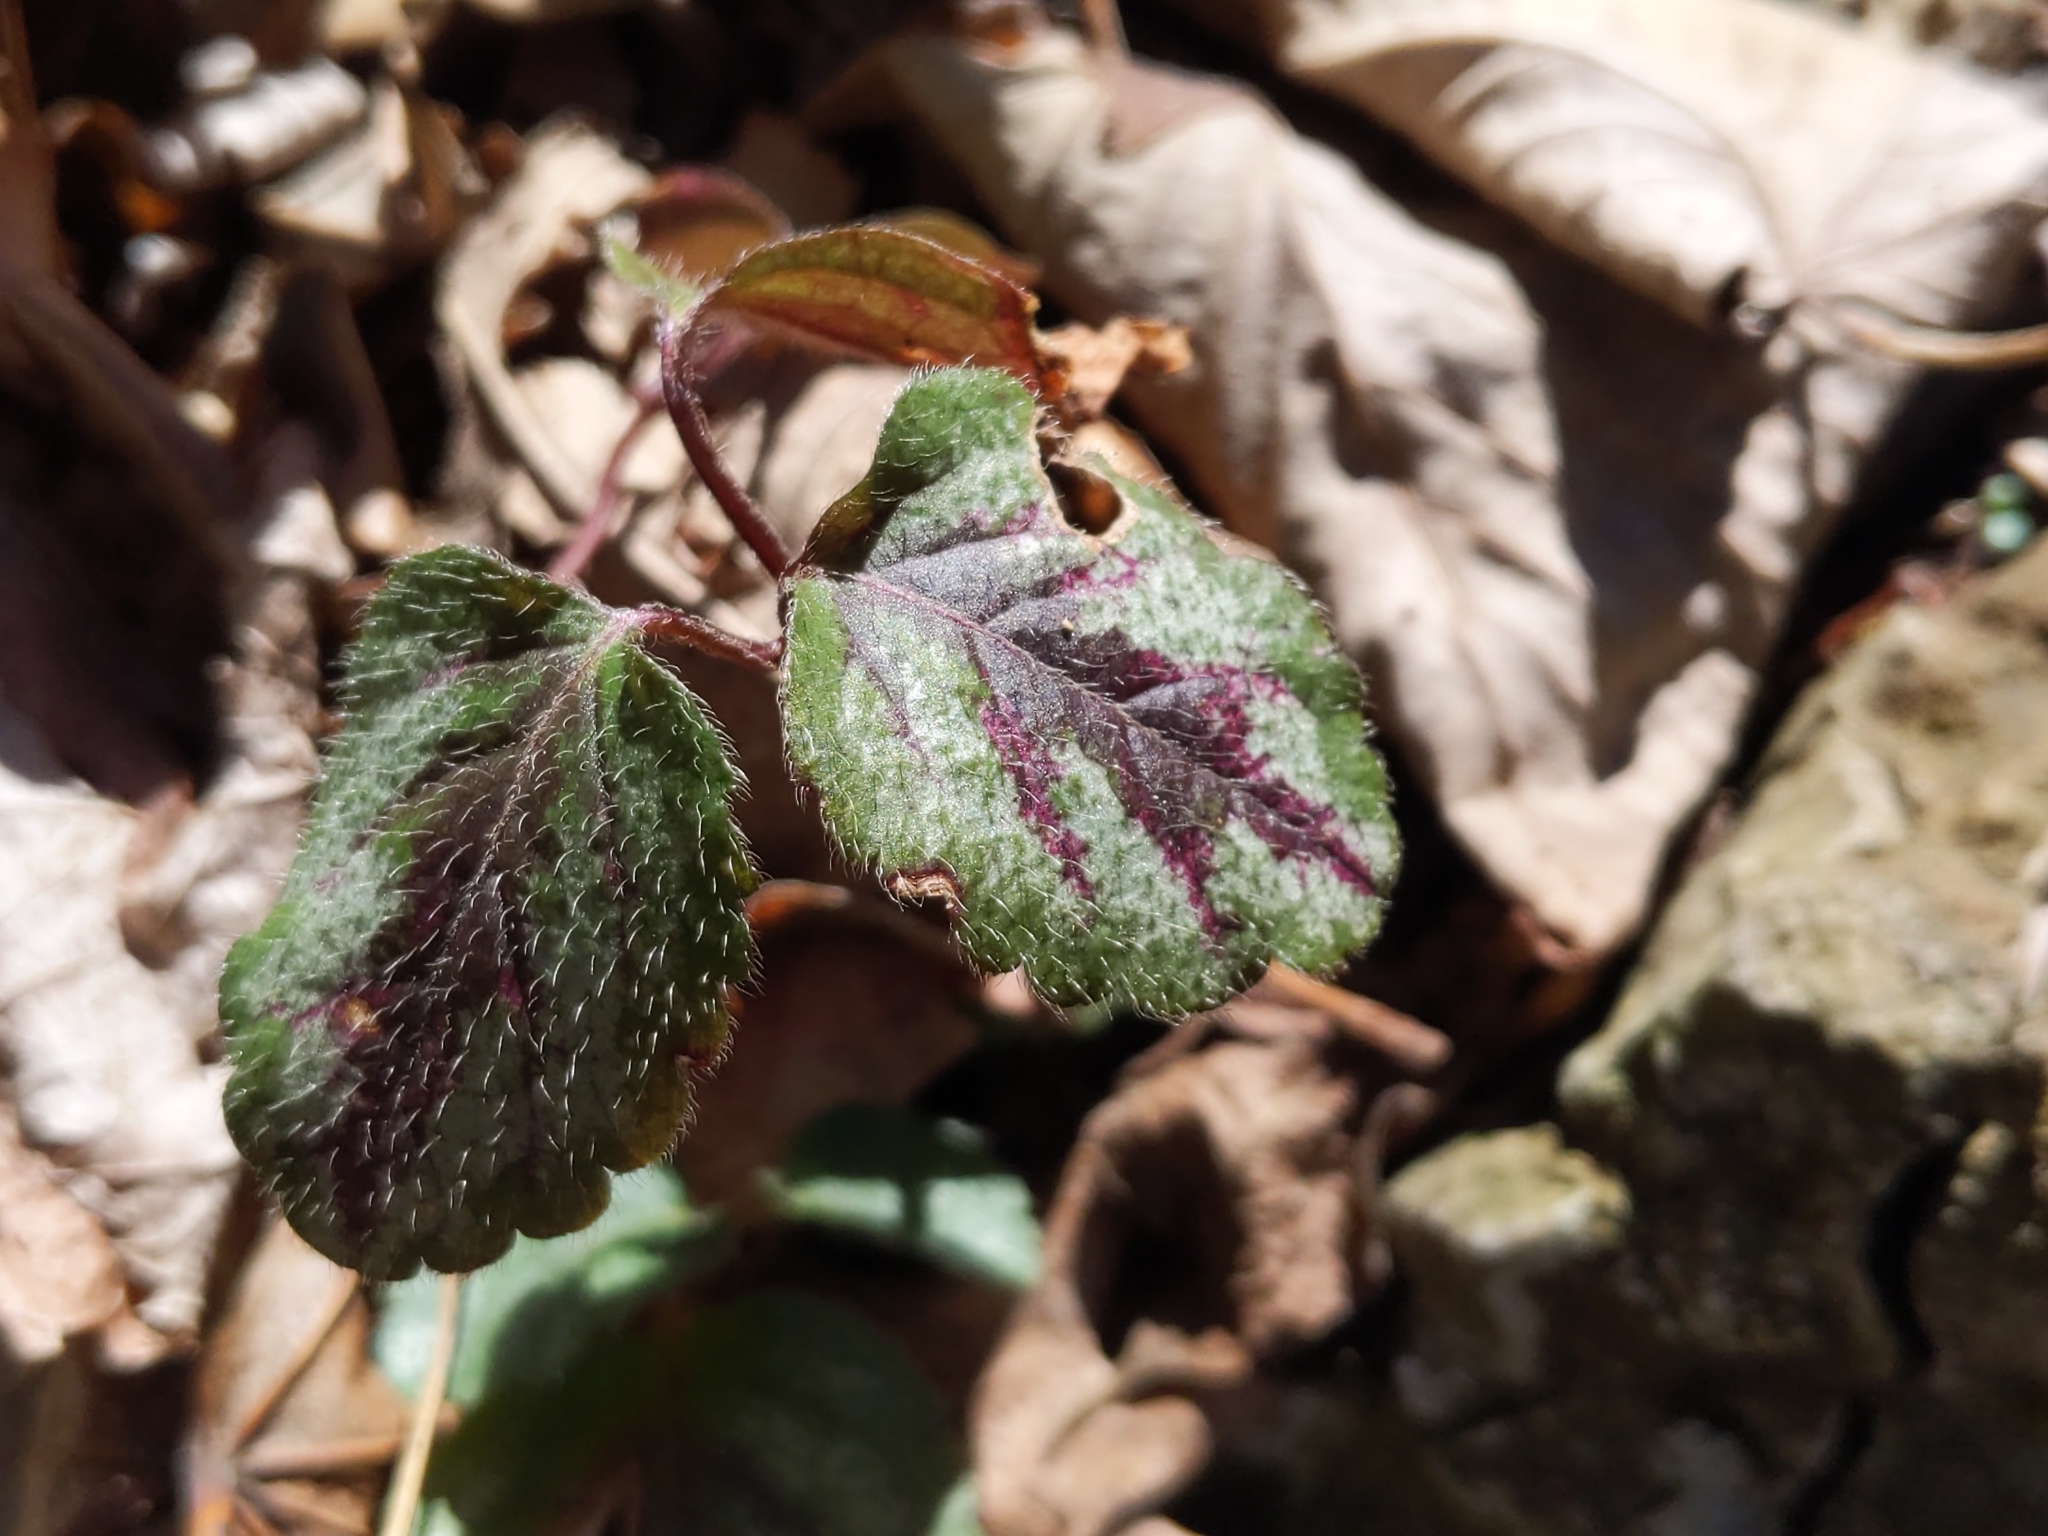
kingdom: Plantae
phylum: Tracheophyta
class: Magnoliopsida
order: Lamiales
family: Lamiaceae
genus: Lamium
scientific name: Lamium galeobdolon
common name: Yellow archangel
